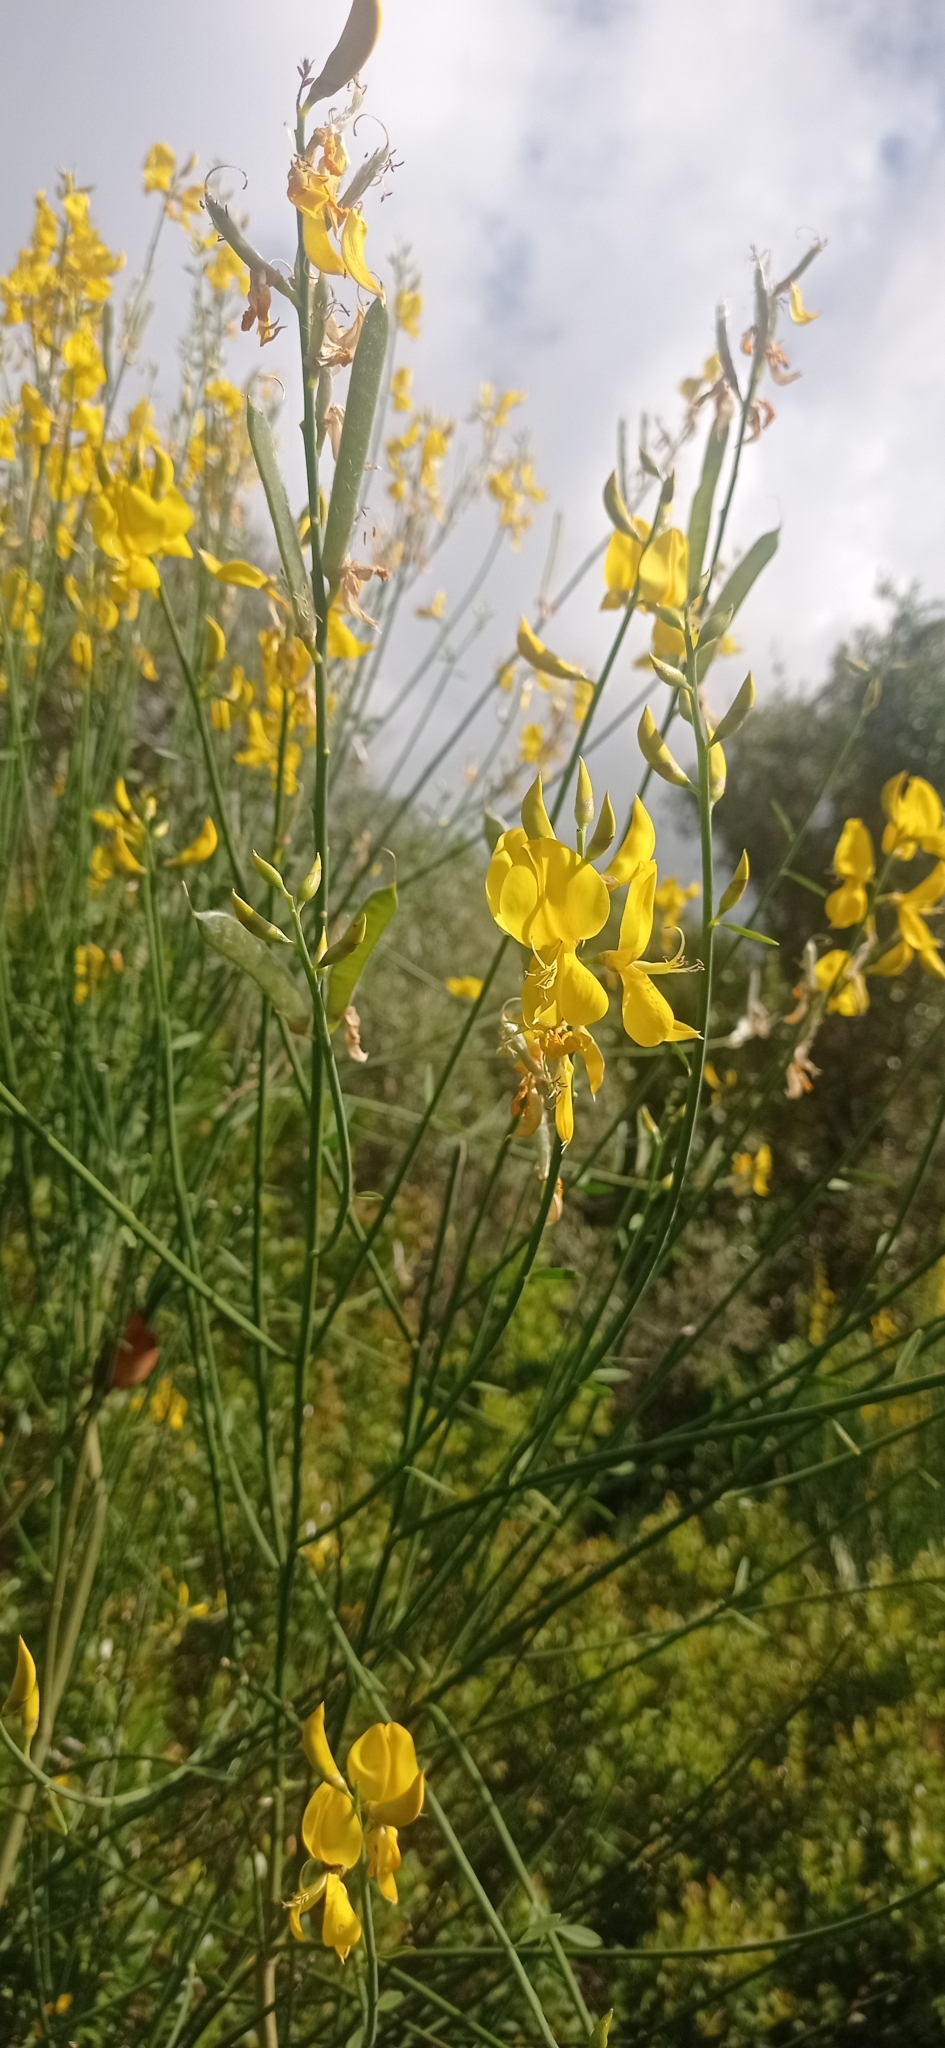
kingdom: Plantae
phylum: Tracheophyta
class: Magnoliopsida
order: Fabales
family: Fabaceae
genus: Spartium
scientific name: Spartium junceum
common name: Spanish broom
